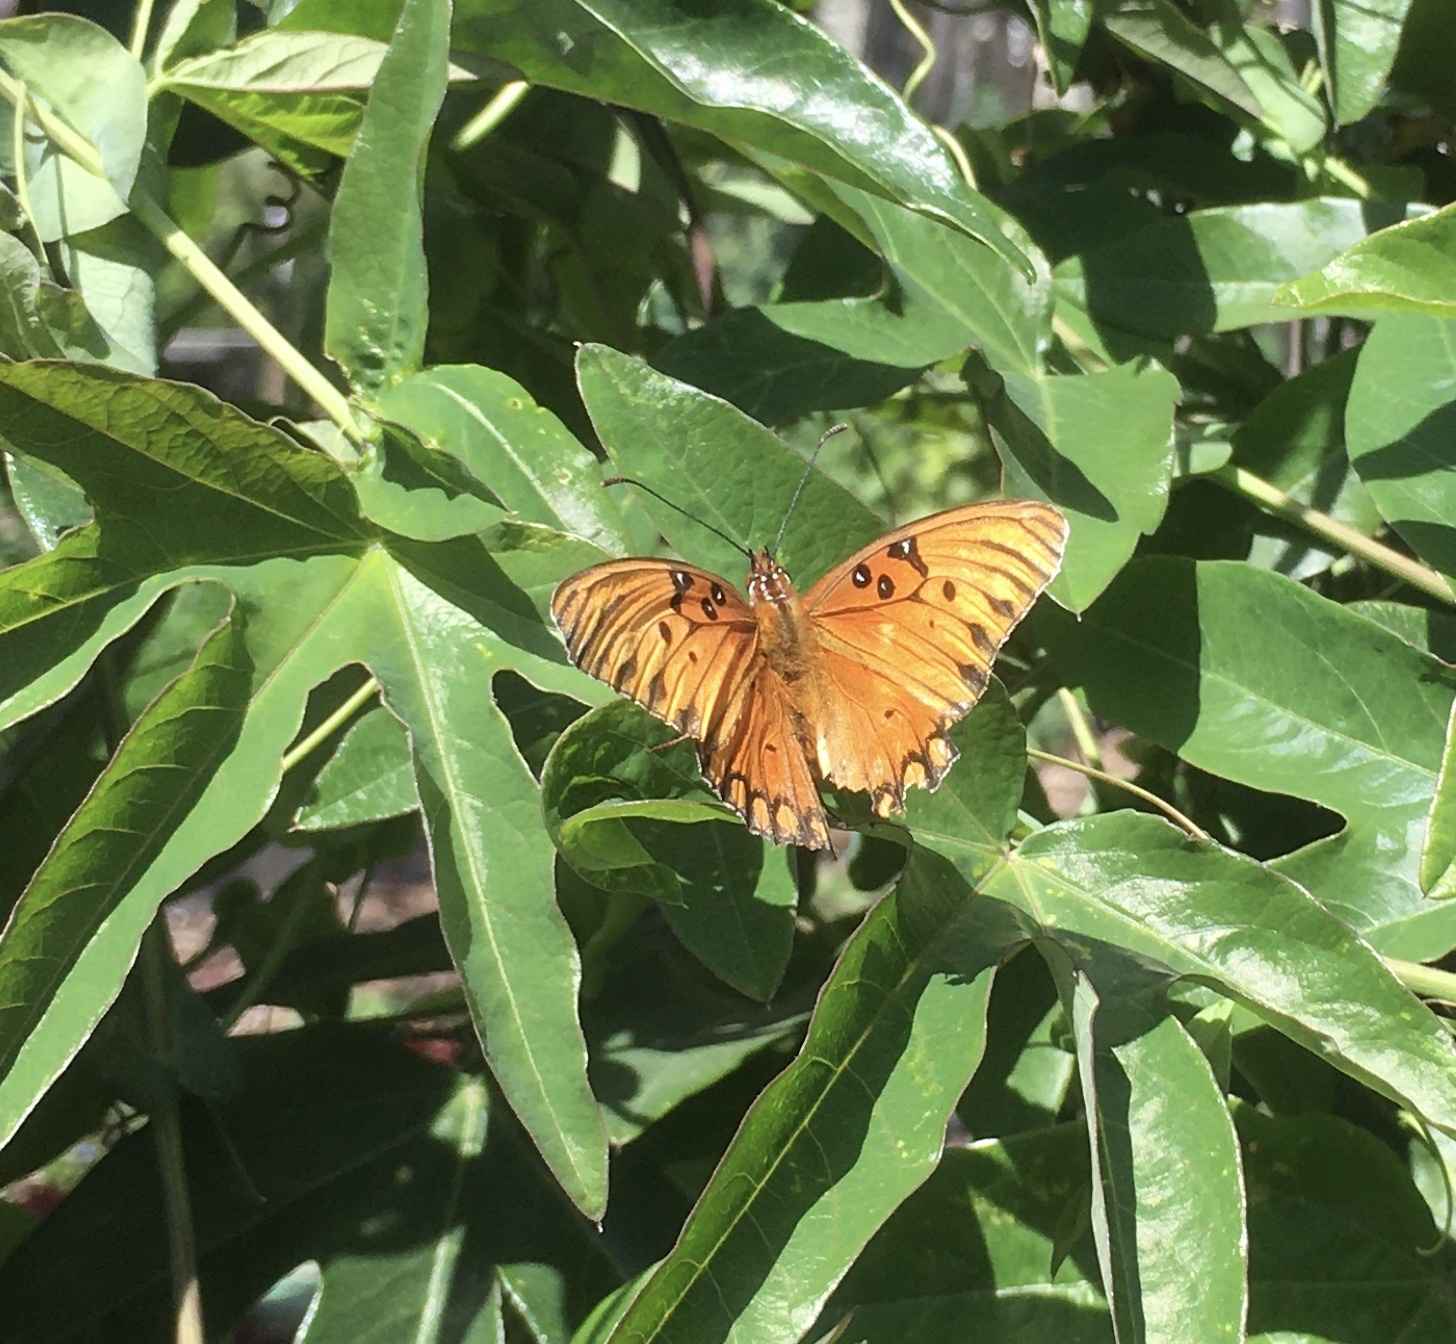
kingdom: Animalia
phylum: Arthropoda
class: Insecta
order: Lepidoptera
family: Nymphalidae
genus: Dione
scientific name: Dione vanillae
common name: Gulf fritillary
